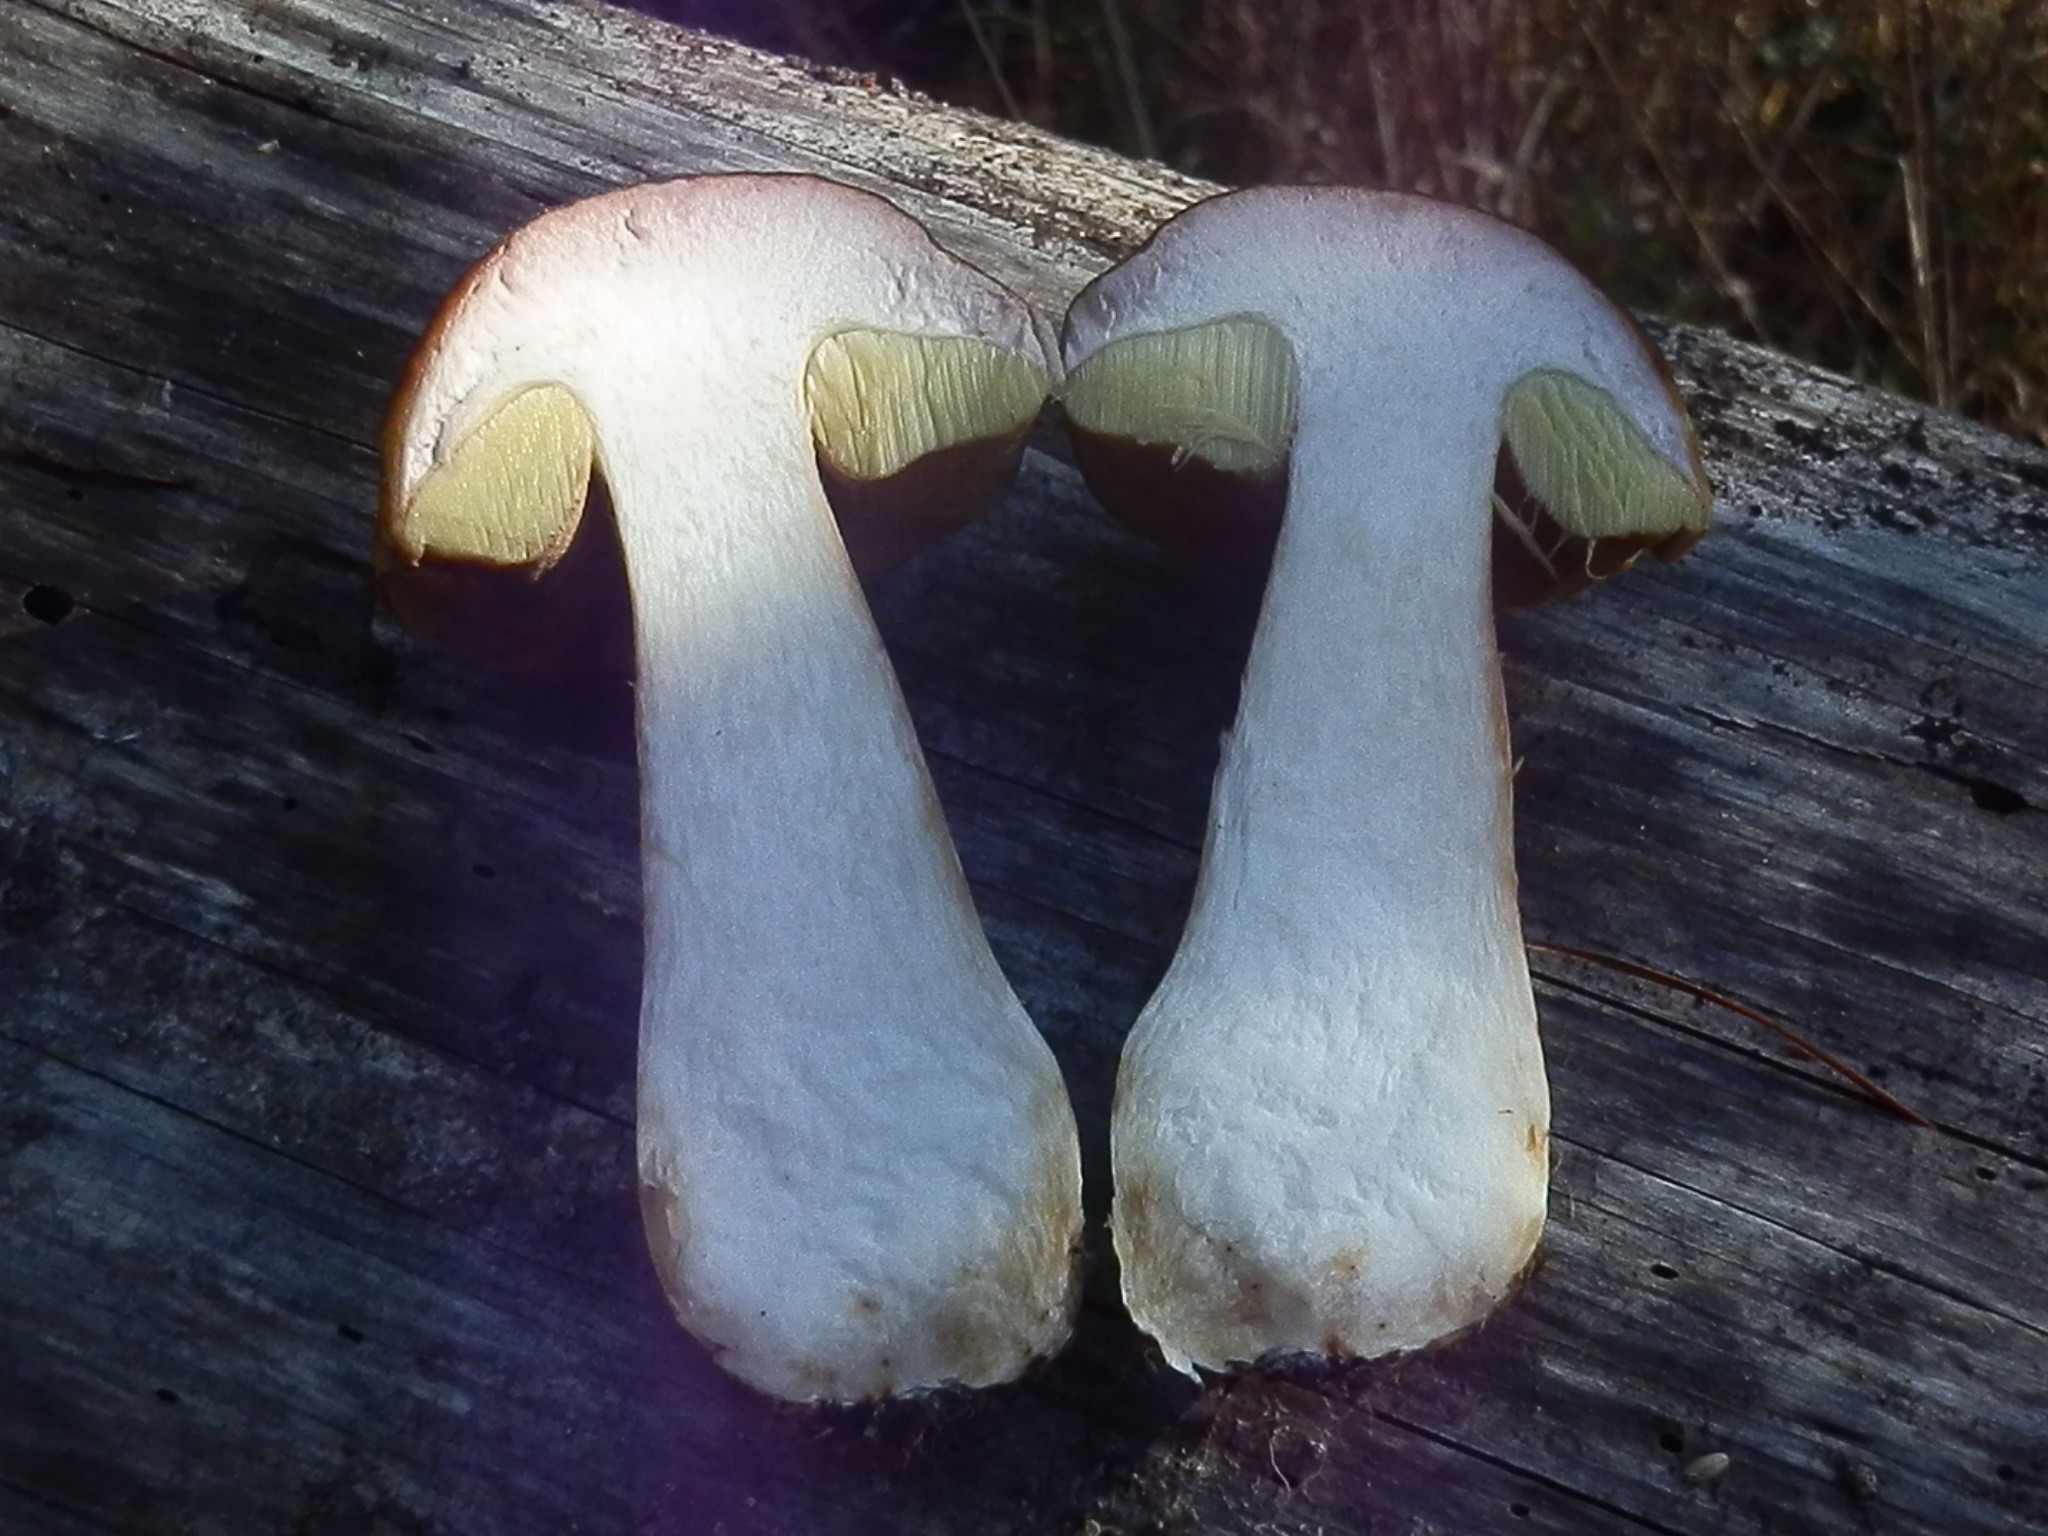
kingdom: Fungi
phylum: Basidiomycota
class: Agaricomycetes
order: Boletales
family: Boletaceae
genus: Boletus
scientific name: Boletus edulis
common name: Cep
